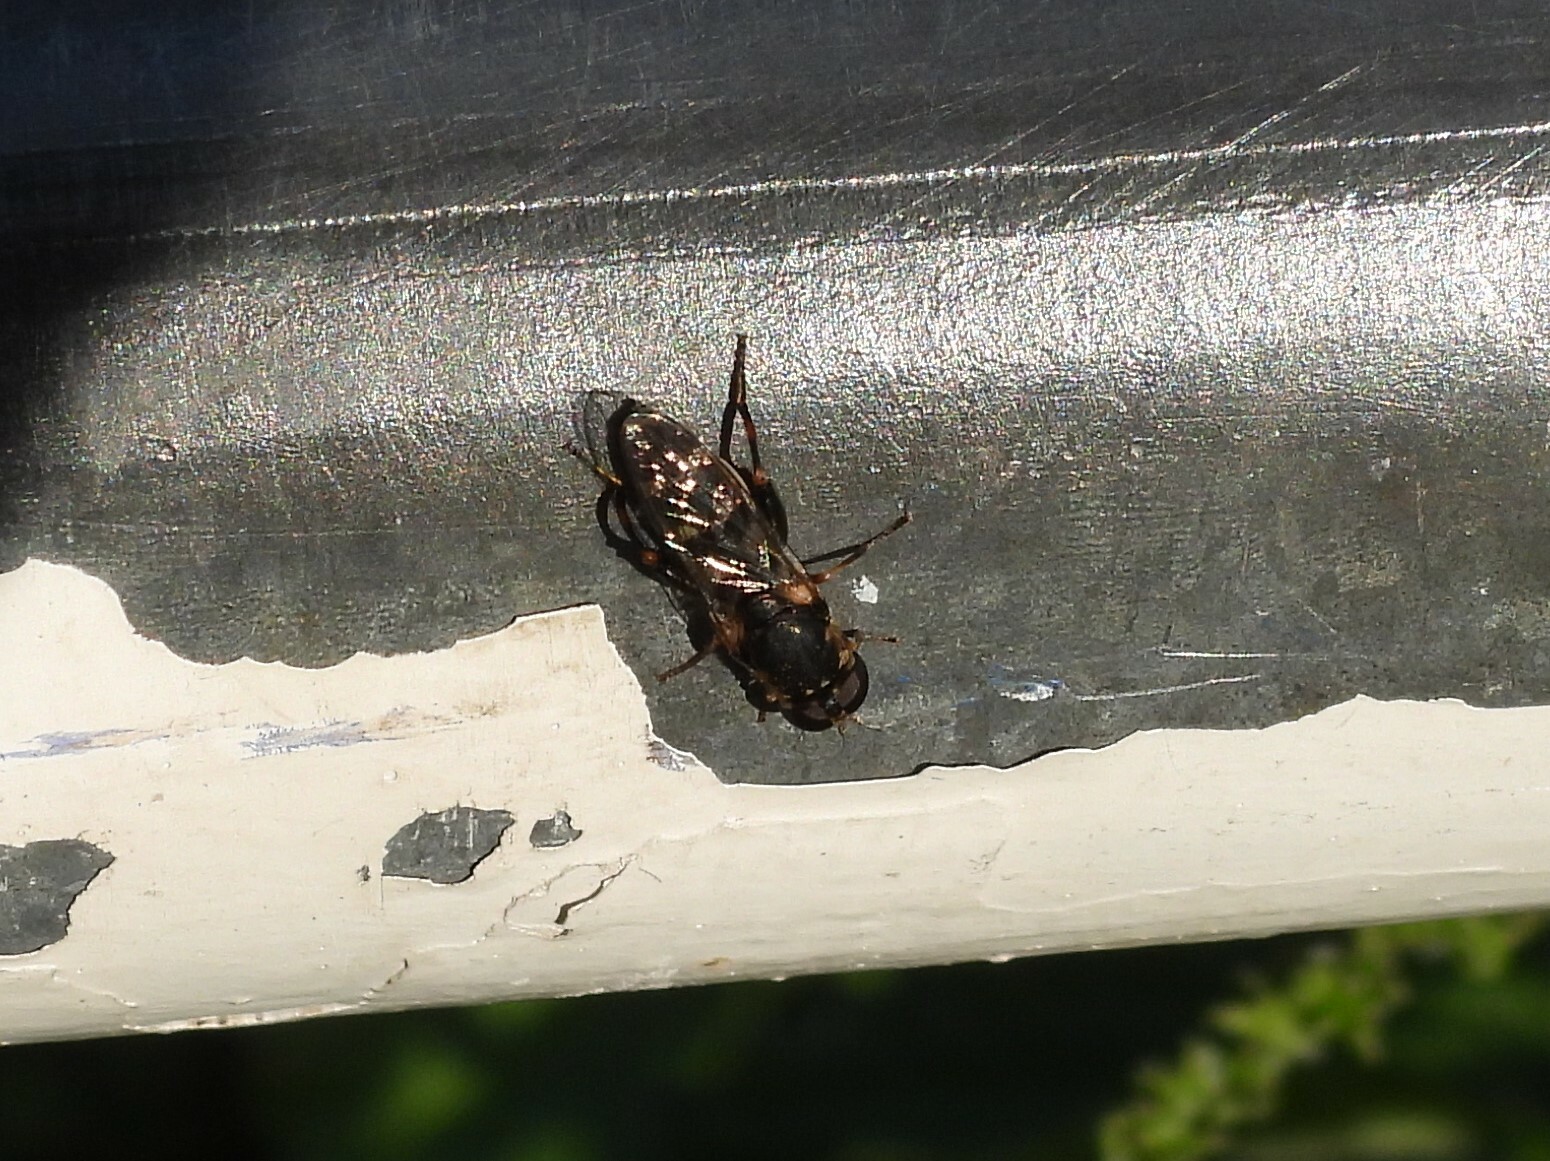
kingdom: Animalia
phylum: Arthropoda
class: Insecta
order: Diptera
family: Syrphidae
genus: Syritta
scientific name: Syritta pipiens
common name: Hover fly
